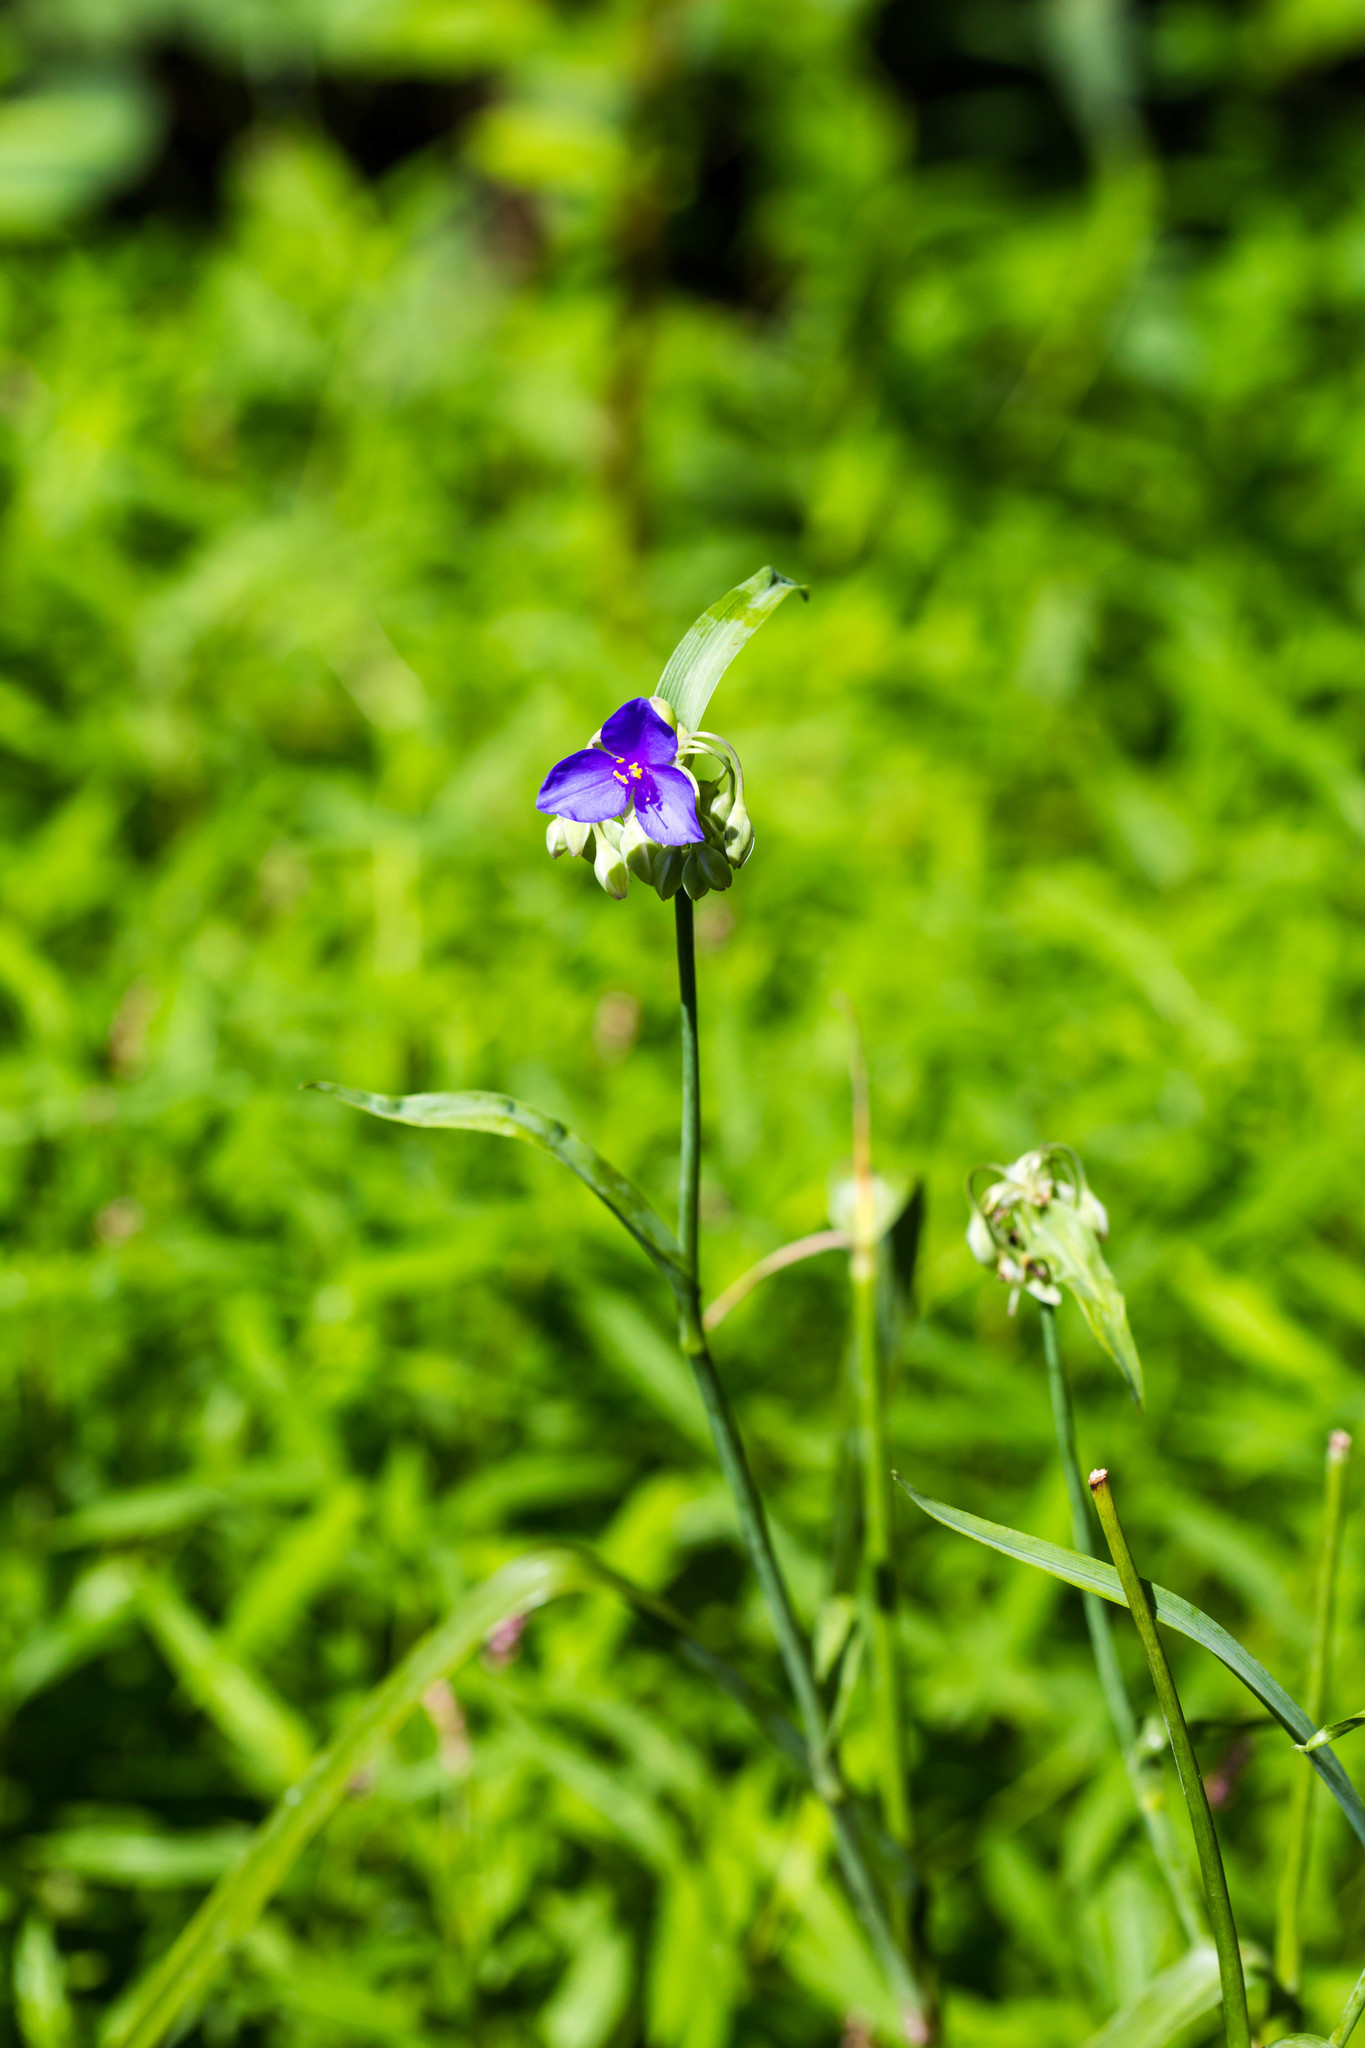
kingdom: Plantae
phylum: Tracheophyta
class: Liliopsida
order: Commelinales
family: Commelinaceae
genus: Tradescantia
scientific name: Tradescantia ohiensis
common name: Ohio spiderwort
